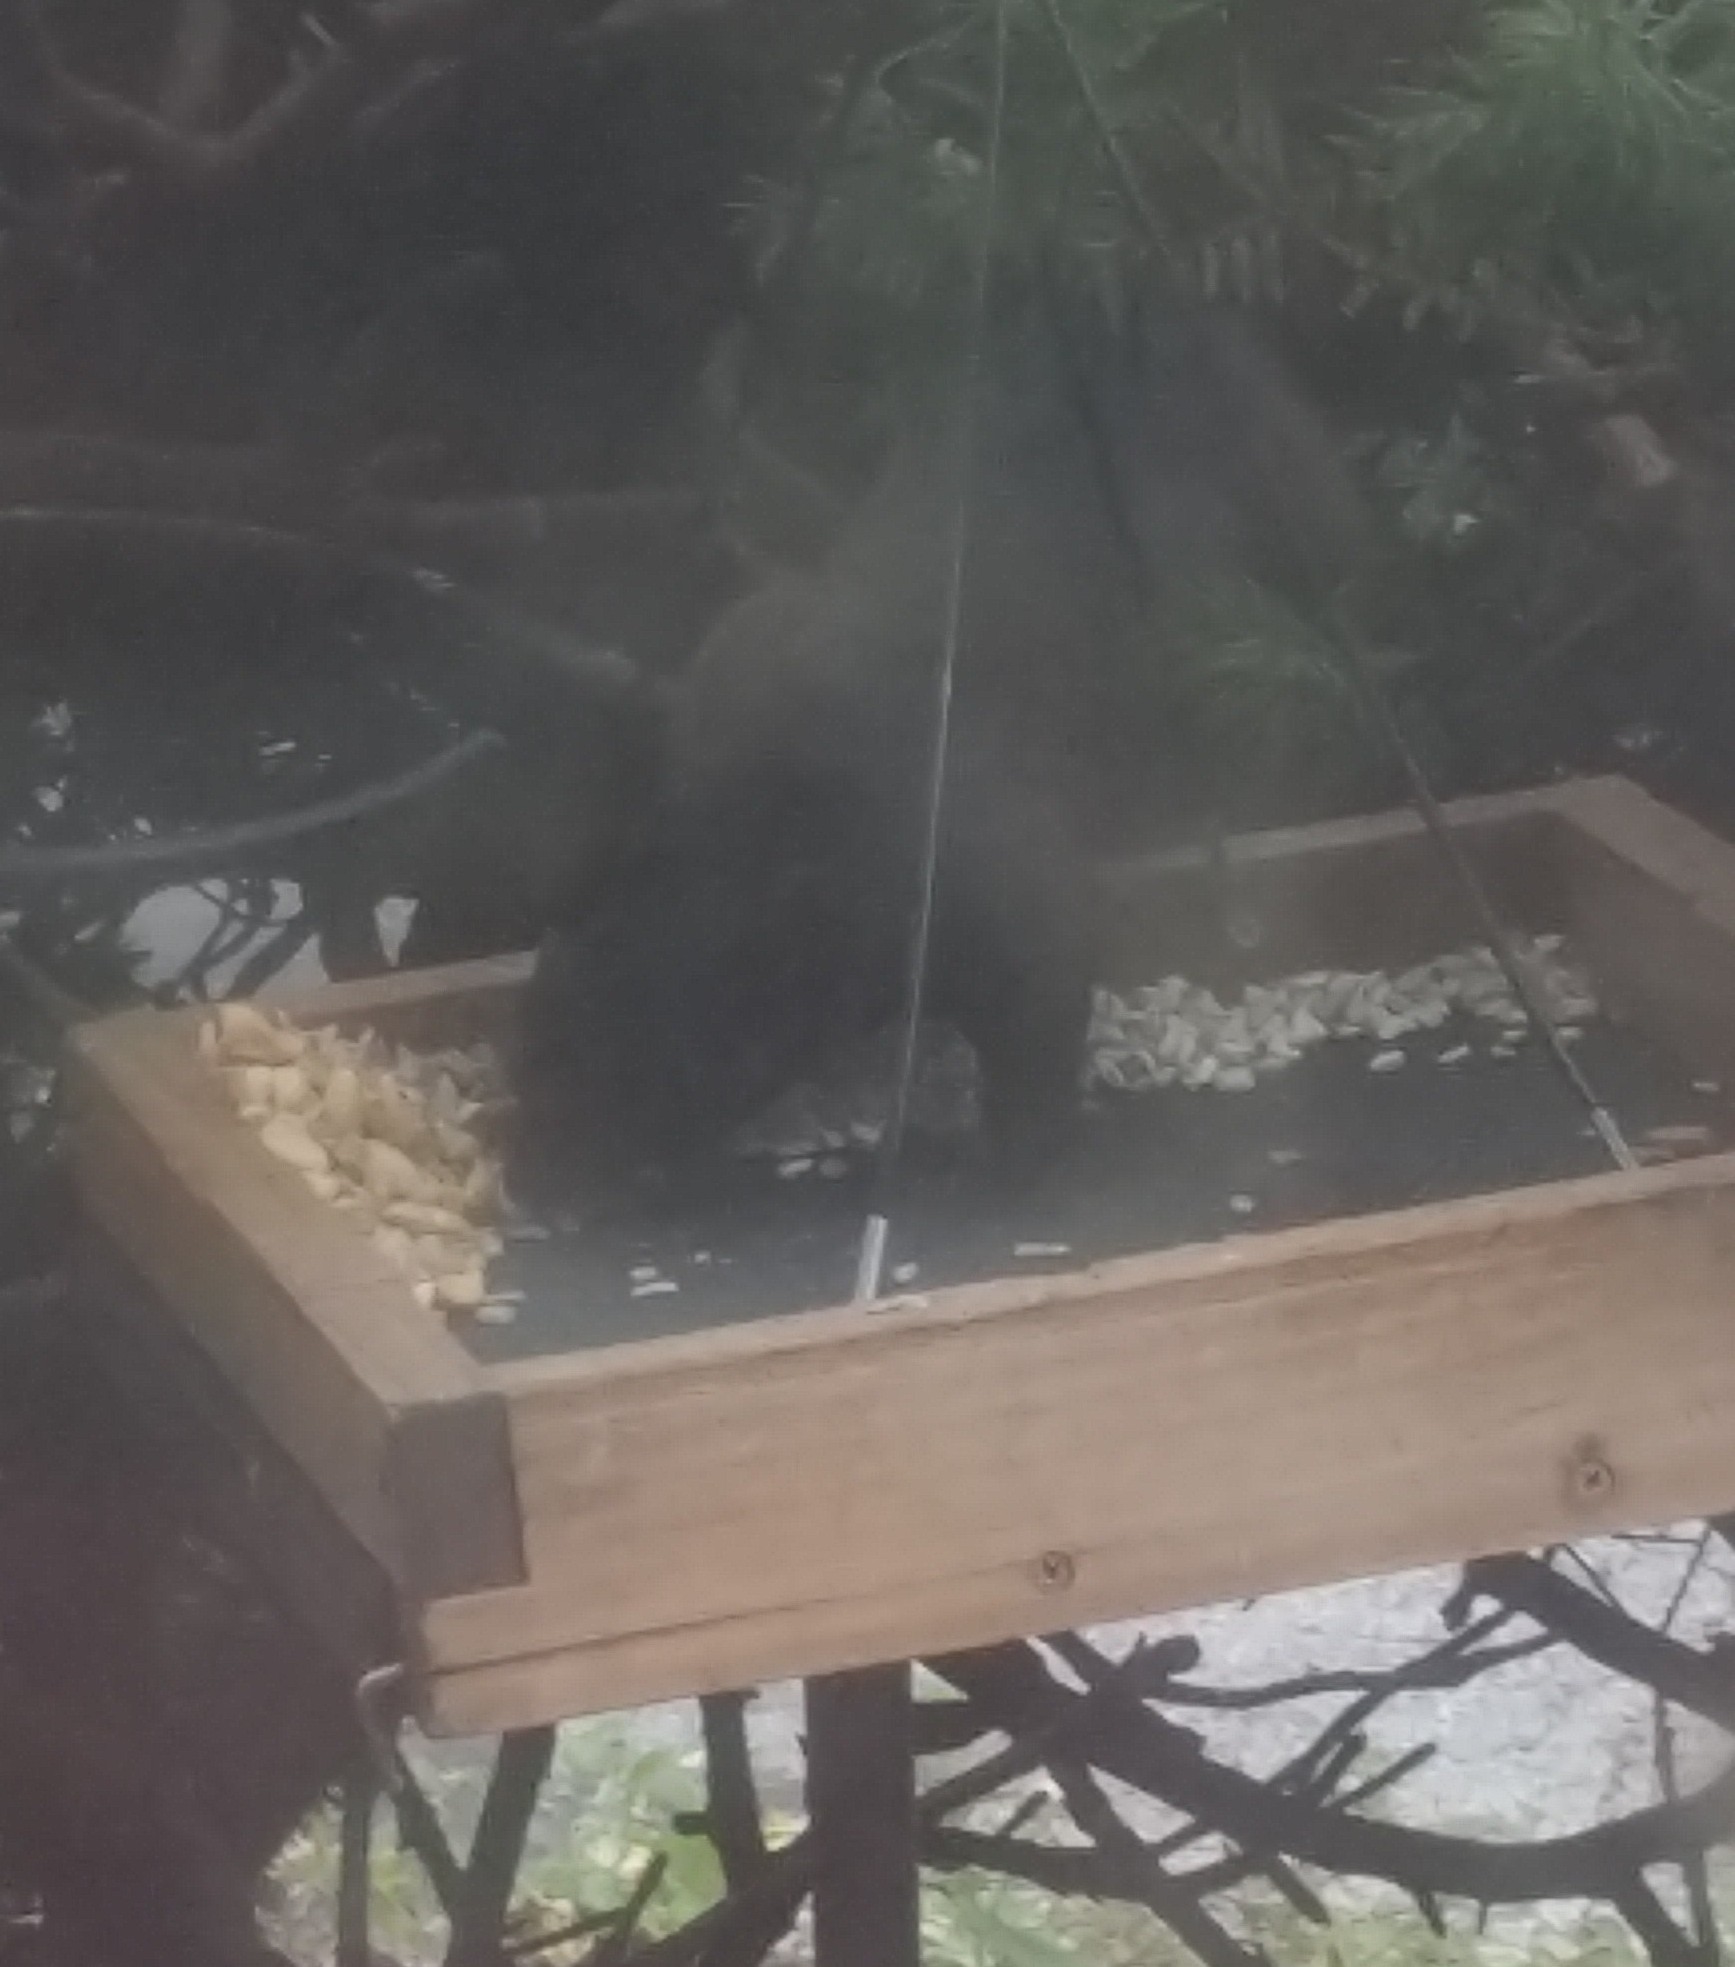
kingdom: Animalia
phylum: Chordata
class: Mammalia
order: Rodentia
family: Sciuridae
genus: Sciurus
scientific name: Sciurus carolinensis
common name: Eastern gray squirrel
